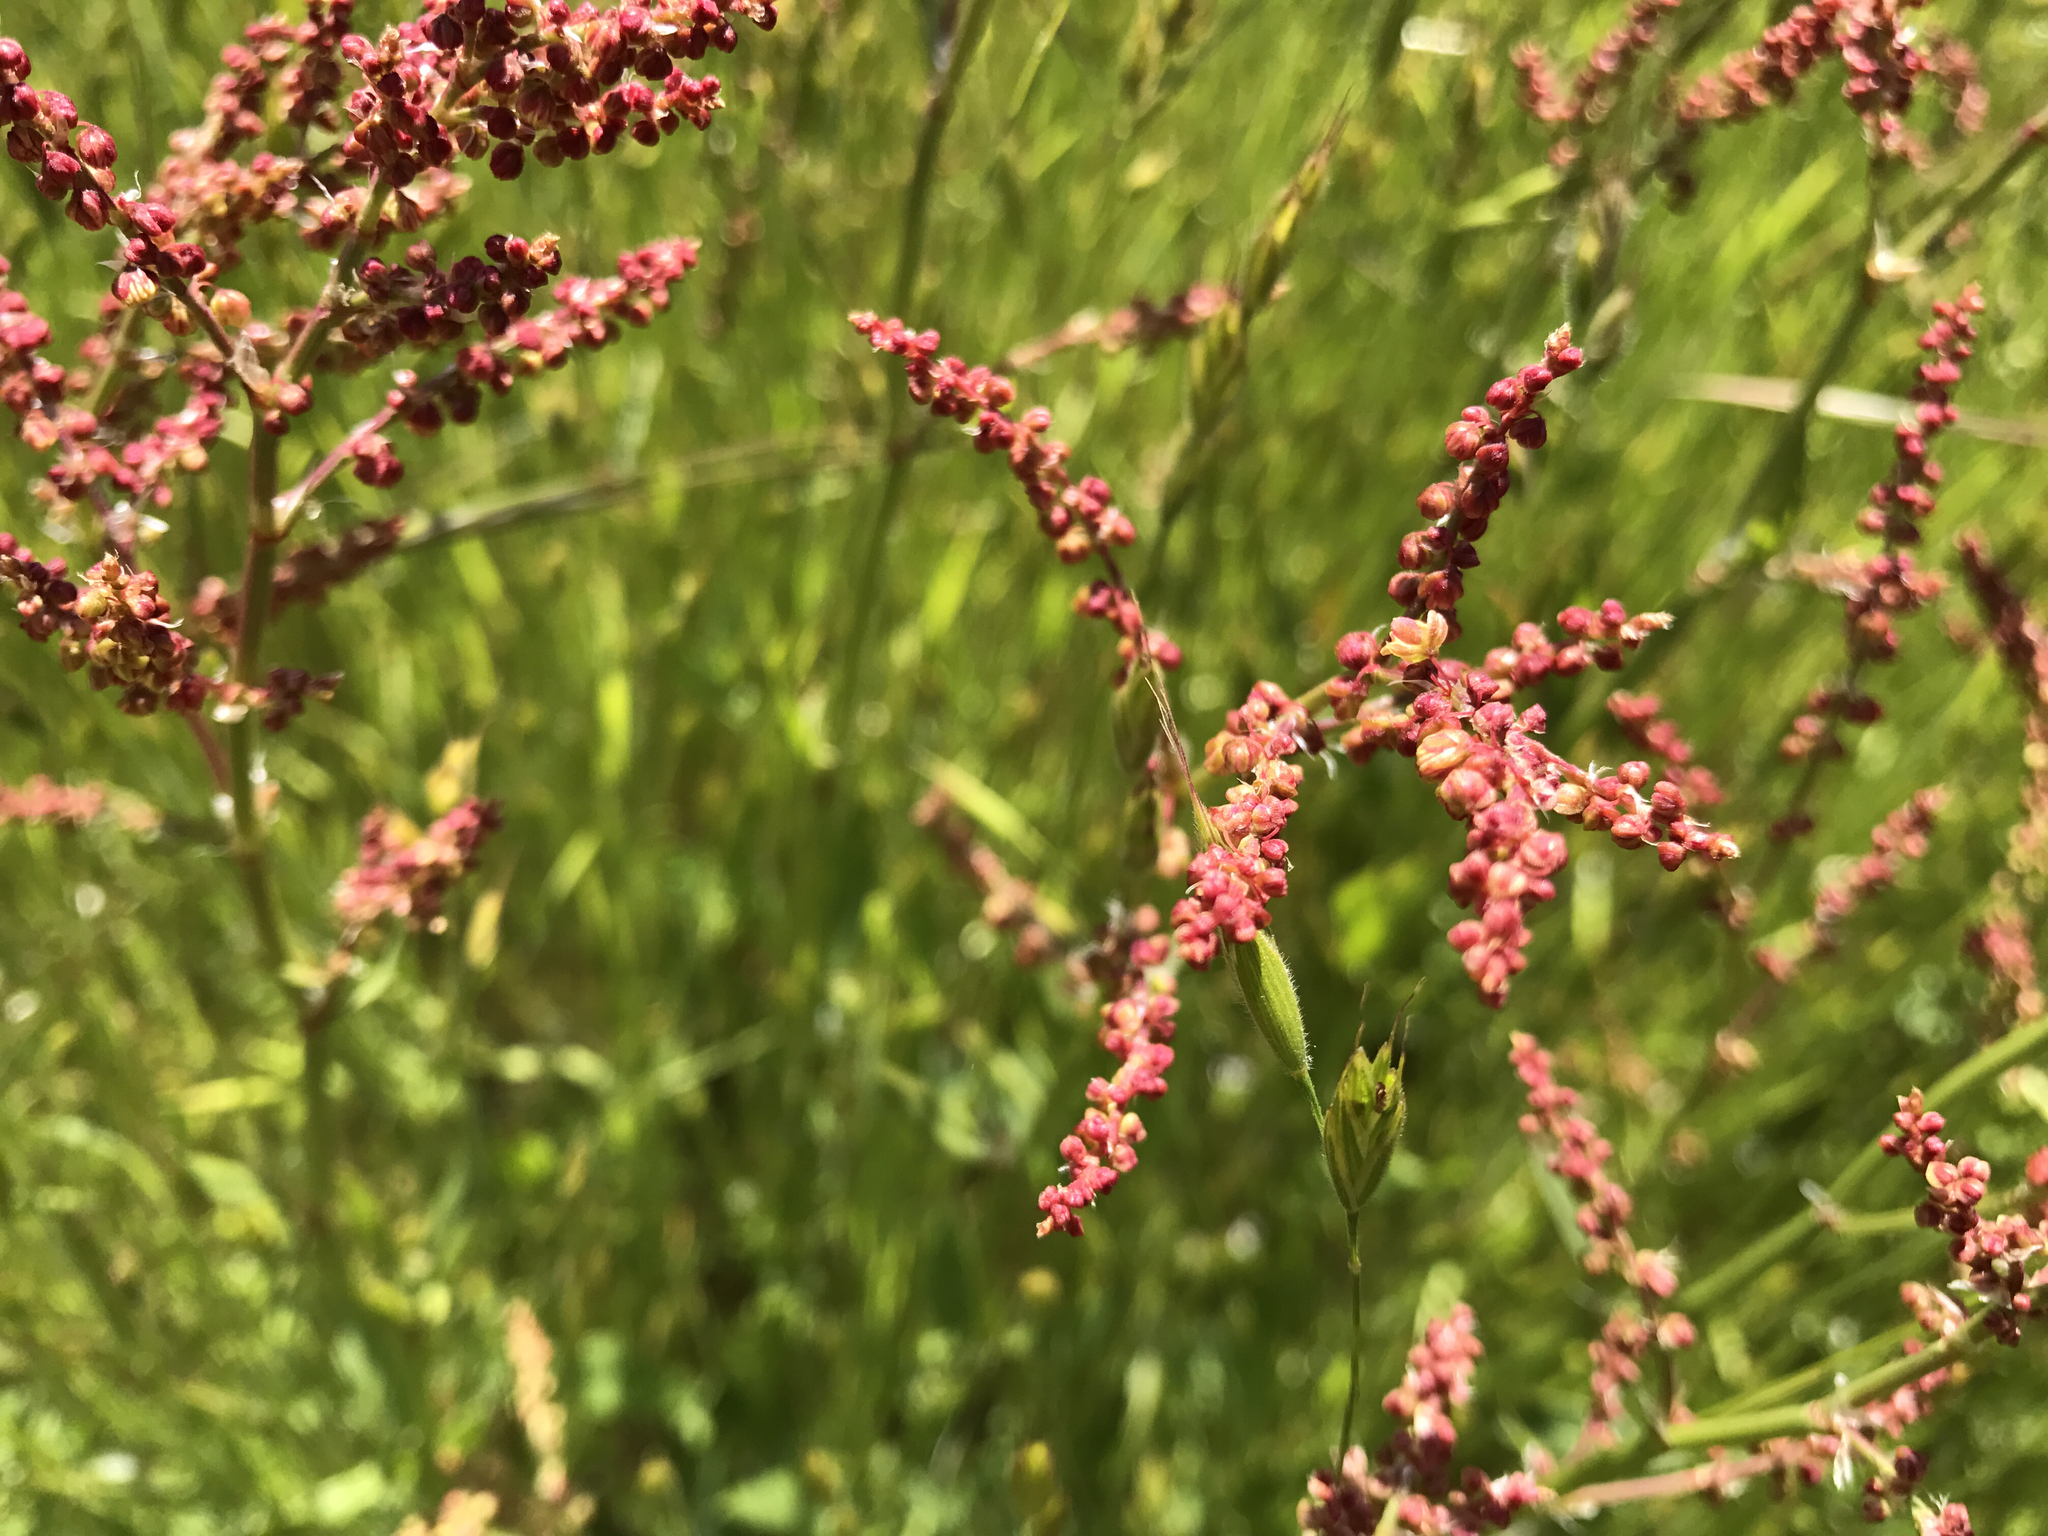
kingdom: Plantae
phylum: Tracheophyta
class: Magnoliopsida
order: Caryophyllales
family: Polygonaceae
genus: Rumex
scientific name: Rumex acetosella
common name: Common sheep sorrel
